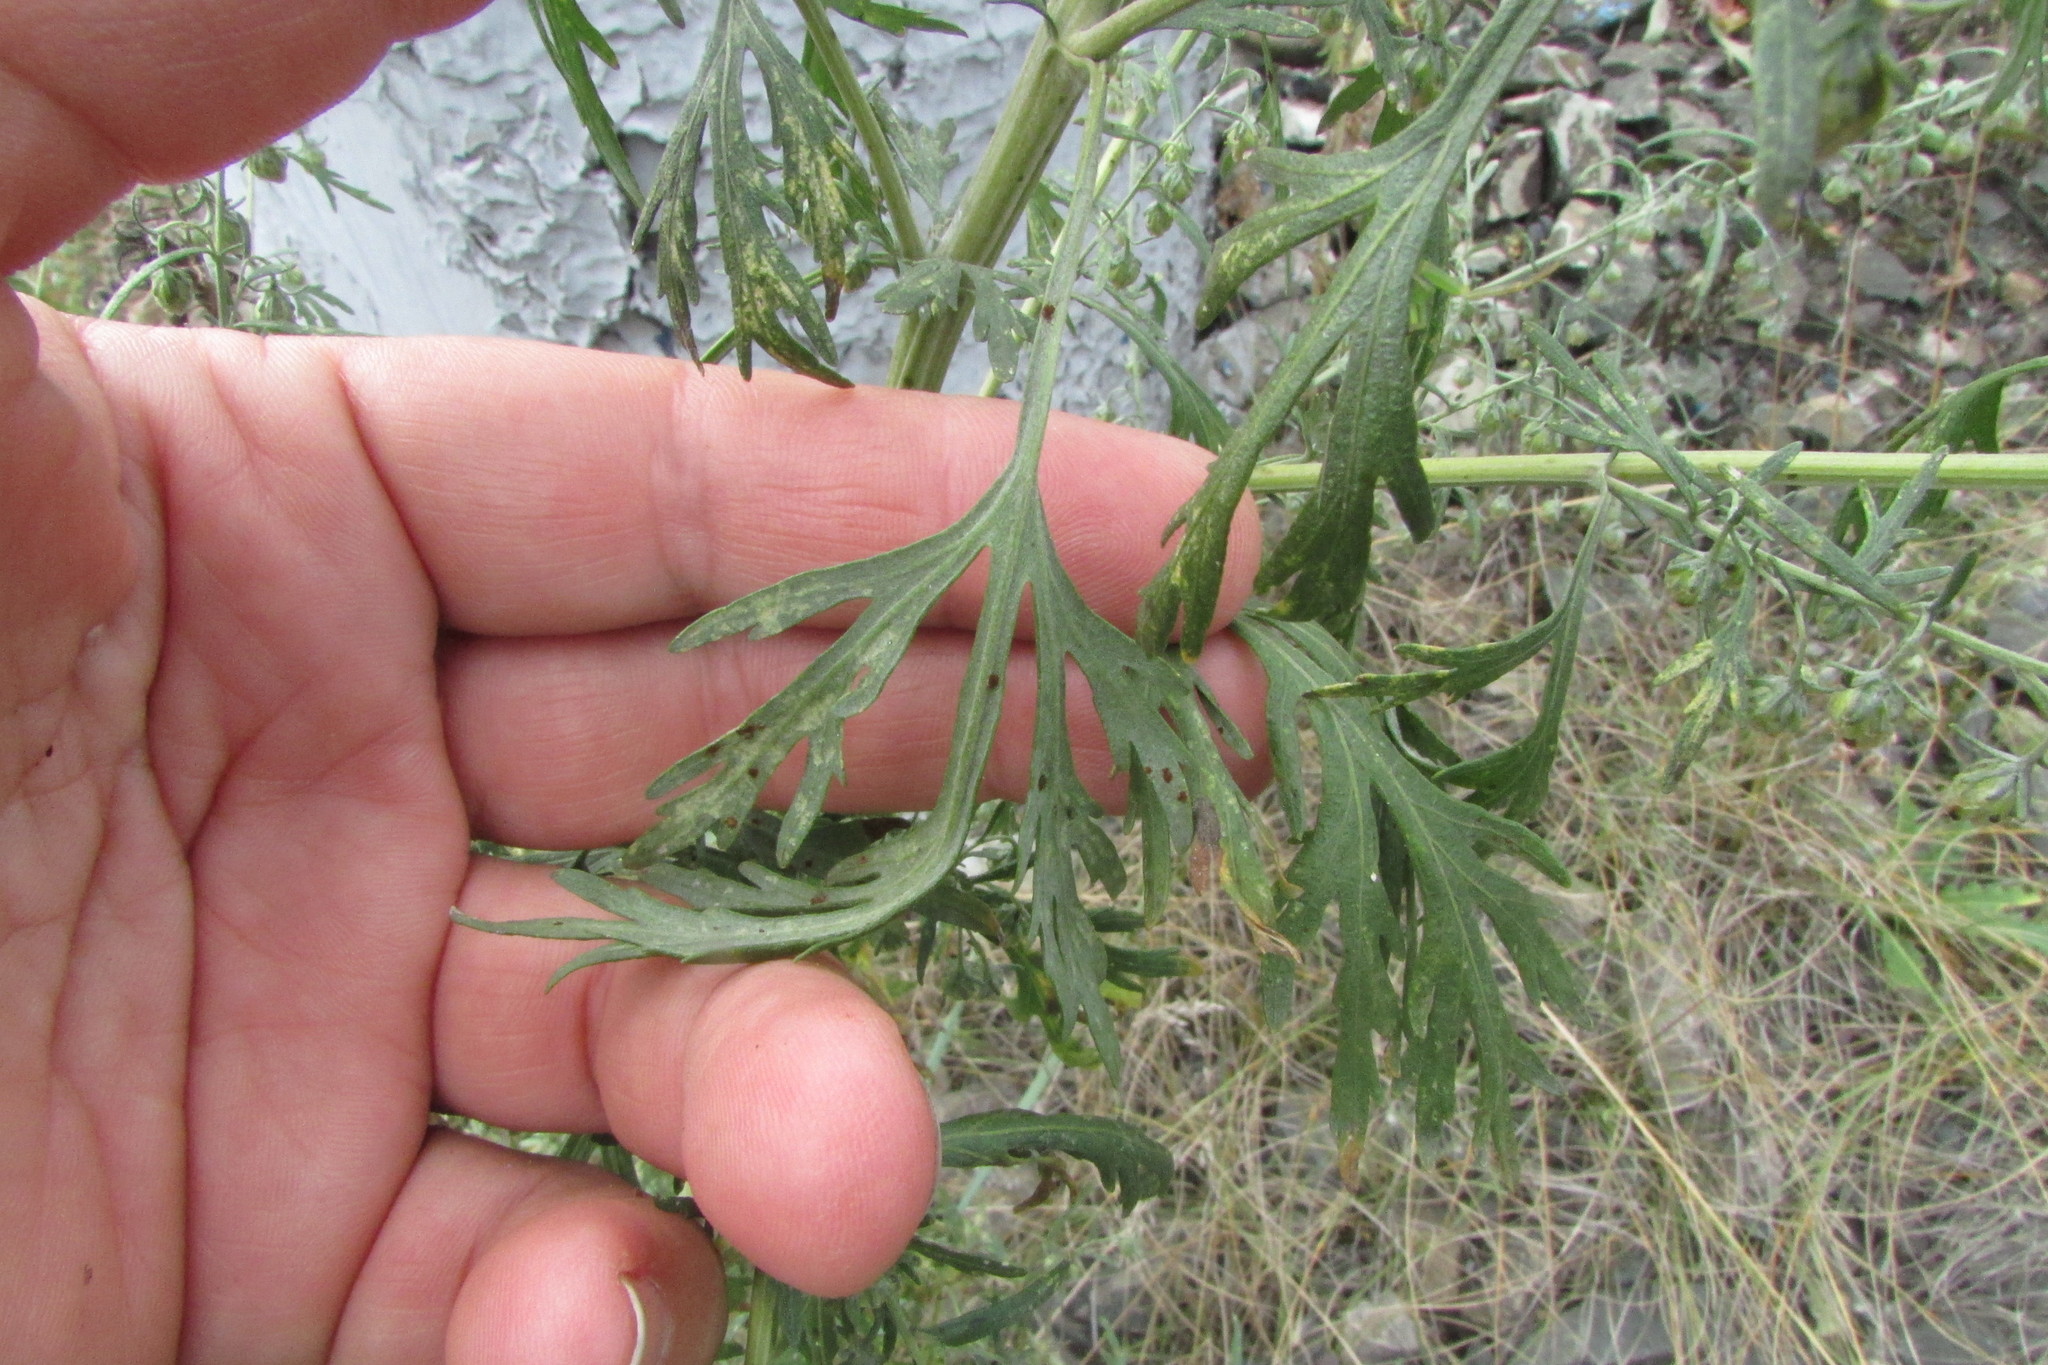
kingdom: Plantae
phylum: Tracheophyta
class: Magnoliopsida
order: Asterales
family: Asteraceae
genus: Artemisia
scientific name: Artemisia sieversiana
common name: Sieversian wormwood
